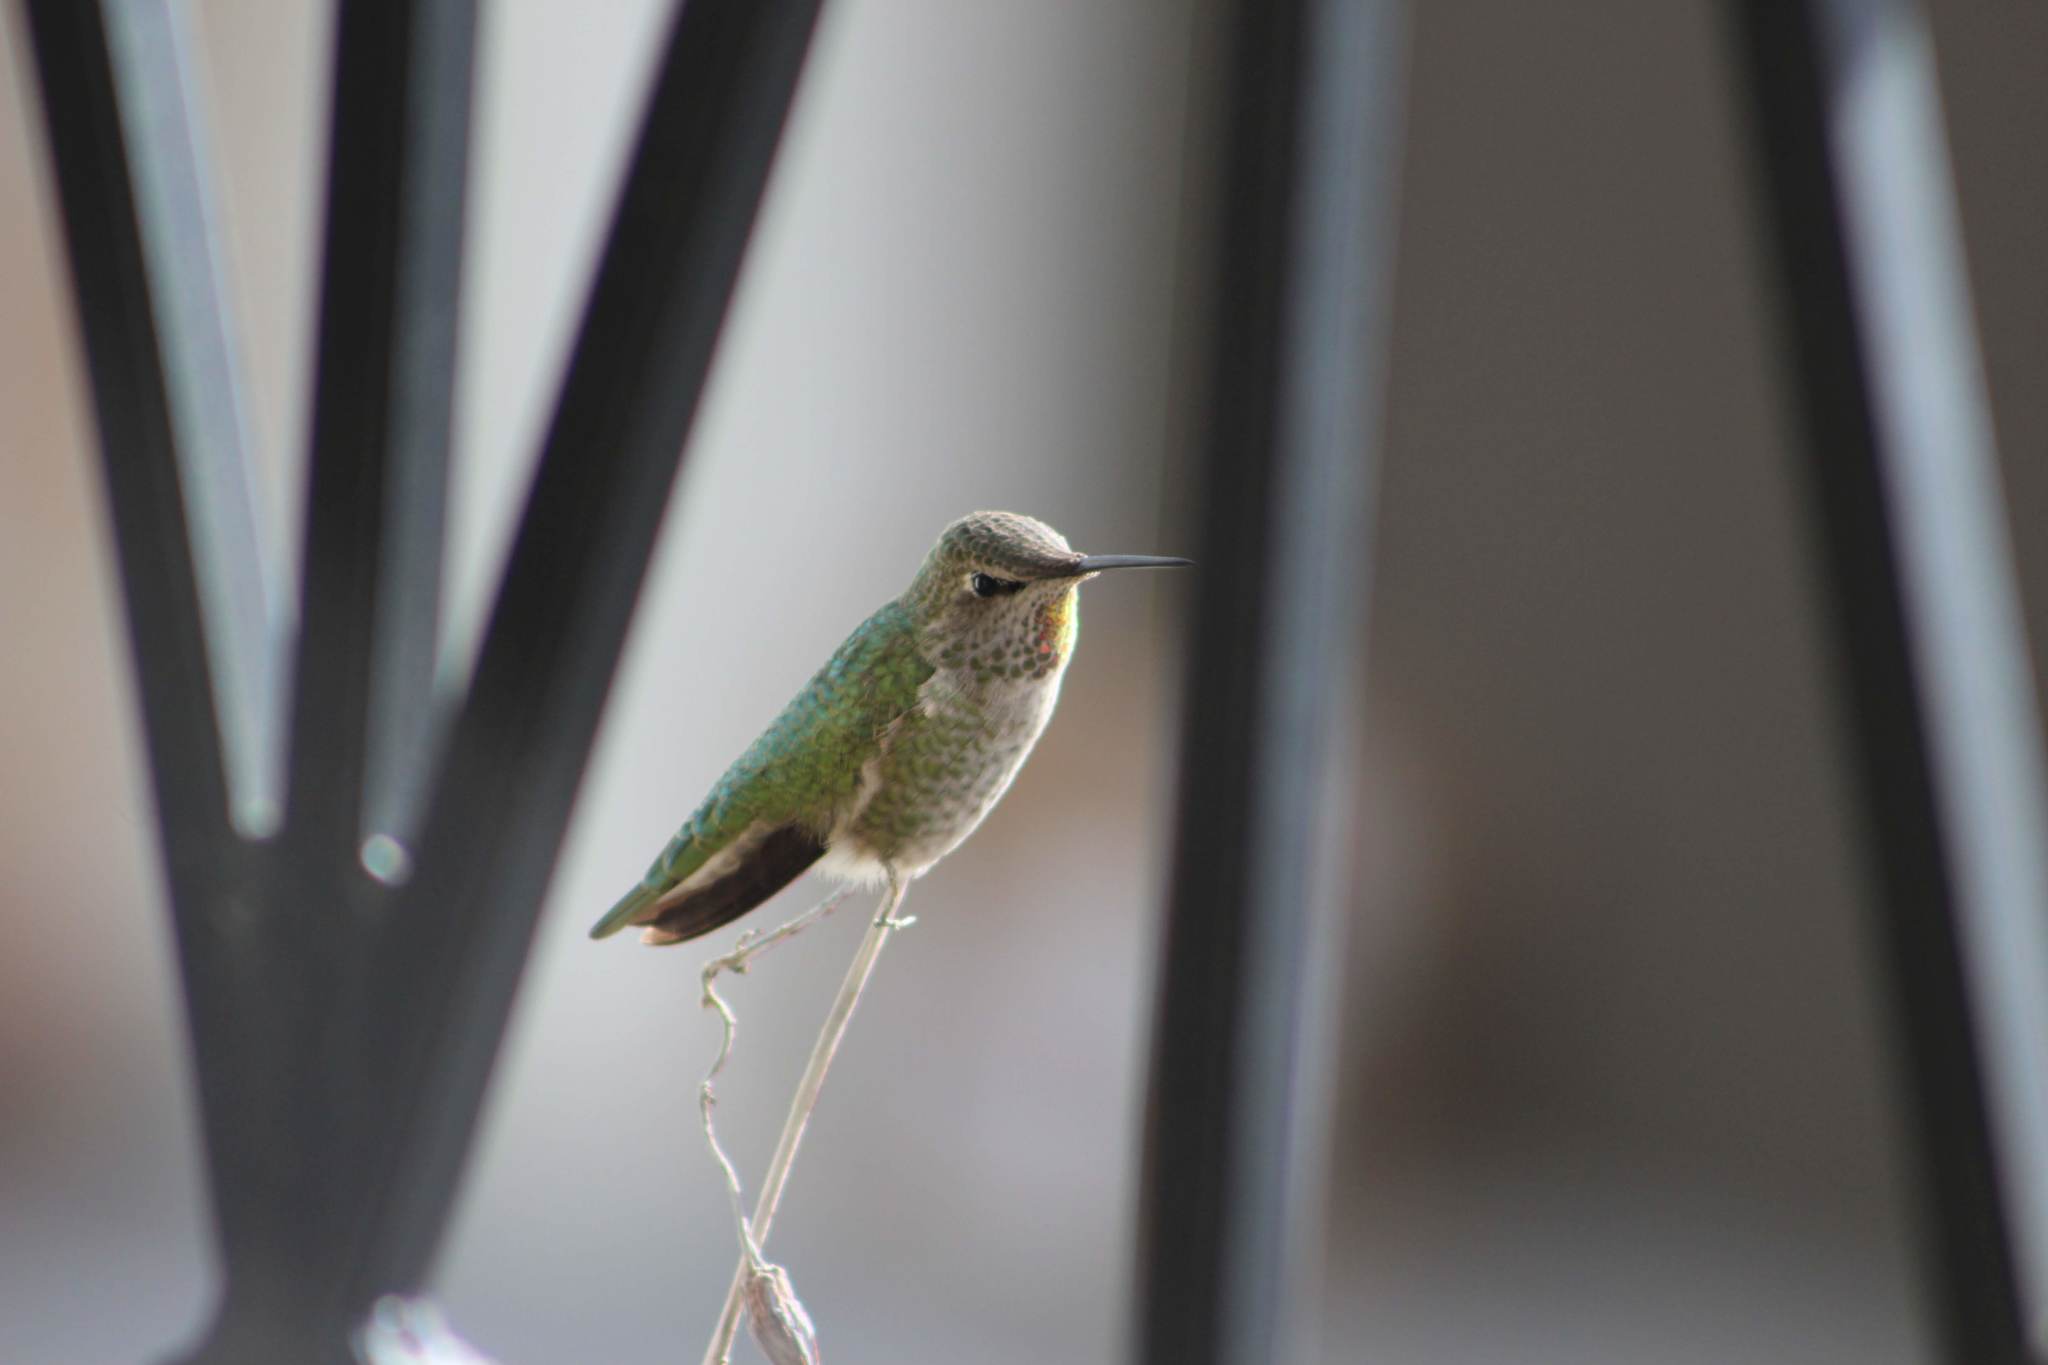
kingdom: Animalia
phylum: Chordata
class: Aves
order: Apodiformes
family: Trochilidae
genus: Calypte
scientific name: Calypte anna
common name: Anna's hummingbird
